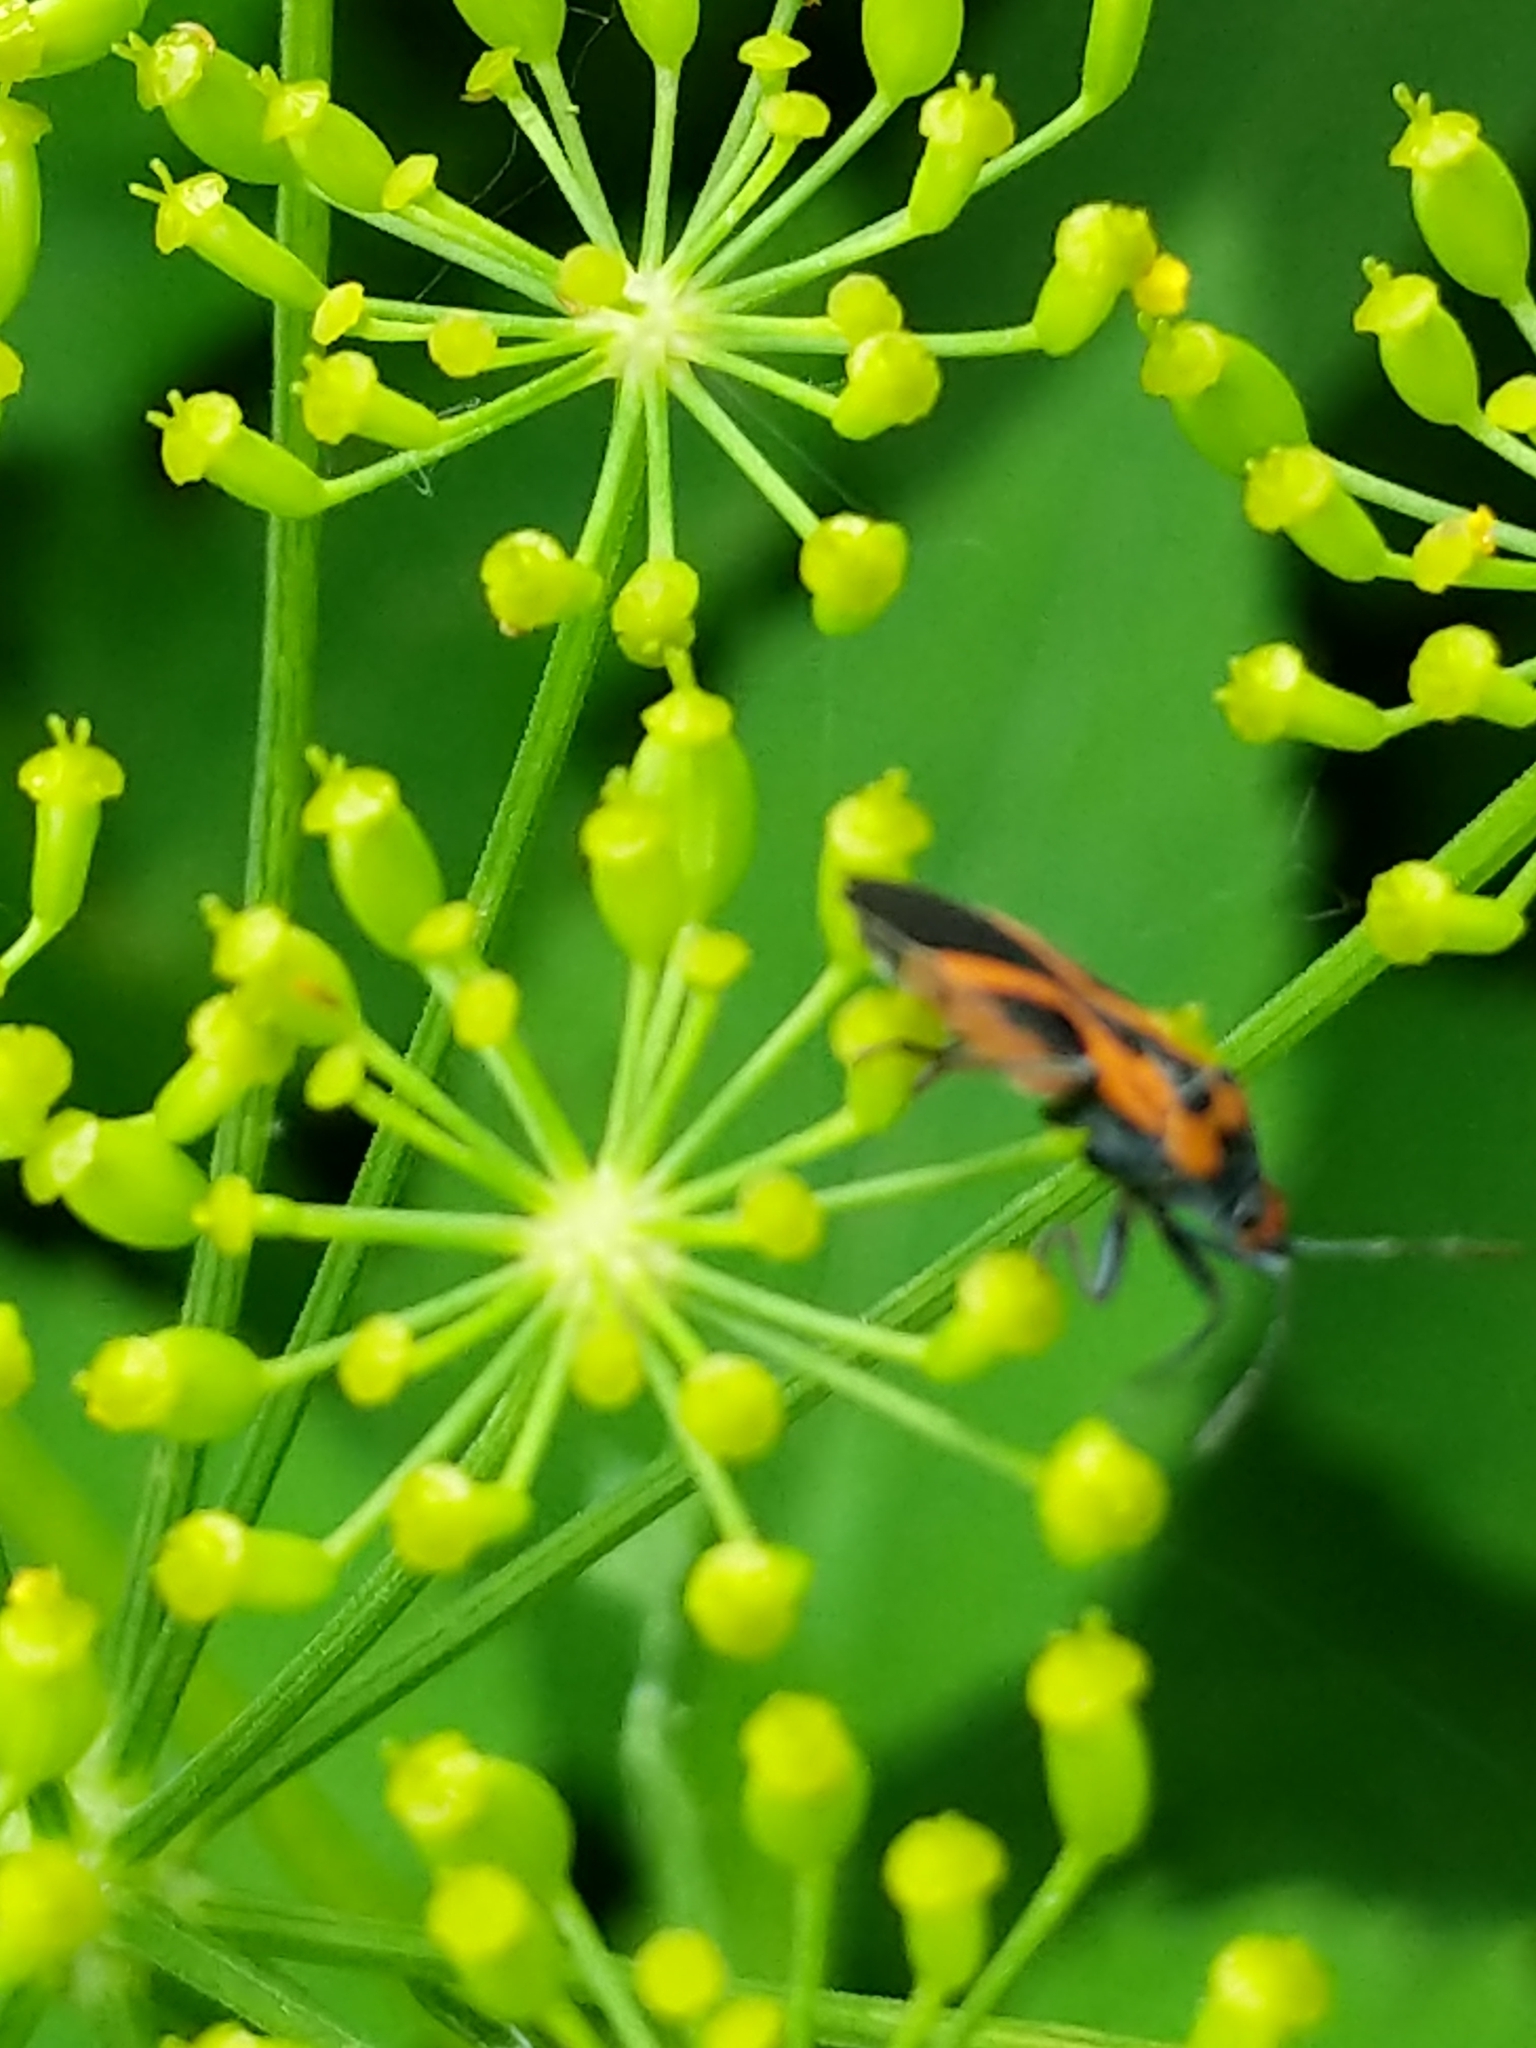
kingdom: Animalia
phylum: Arthropoda
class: Insecta
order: Hemiptera
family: Lygaeidae
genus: Lygaeus
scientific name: Lygaeus turcicus
